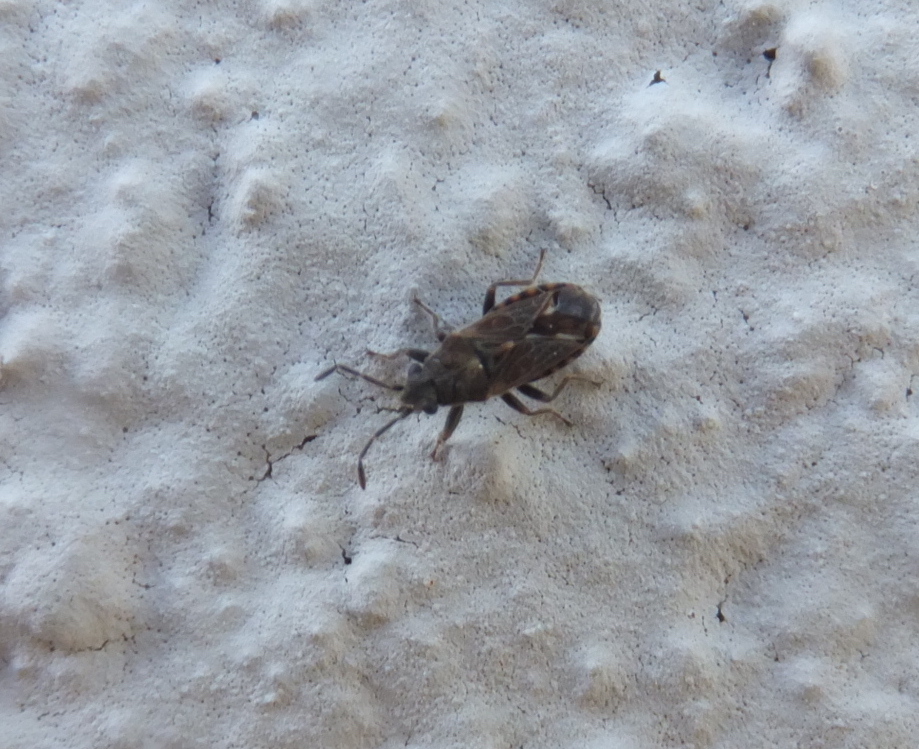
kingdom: Animalia
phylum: Arthropoda
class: Insecta
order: Hemiptera
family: Lygaeidae
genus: Lygaeosoma
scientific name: Lygaeosoma sardeum
